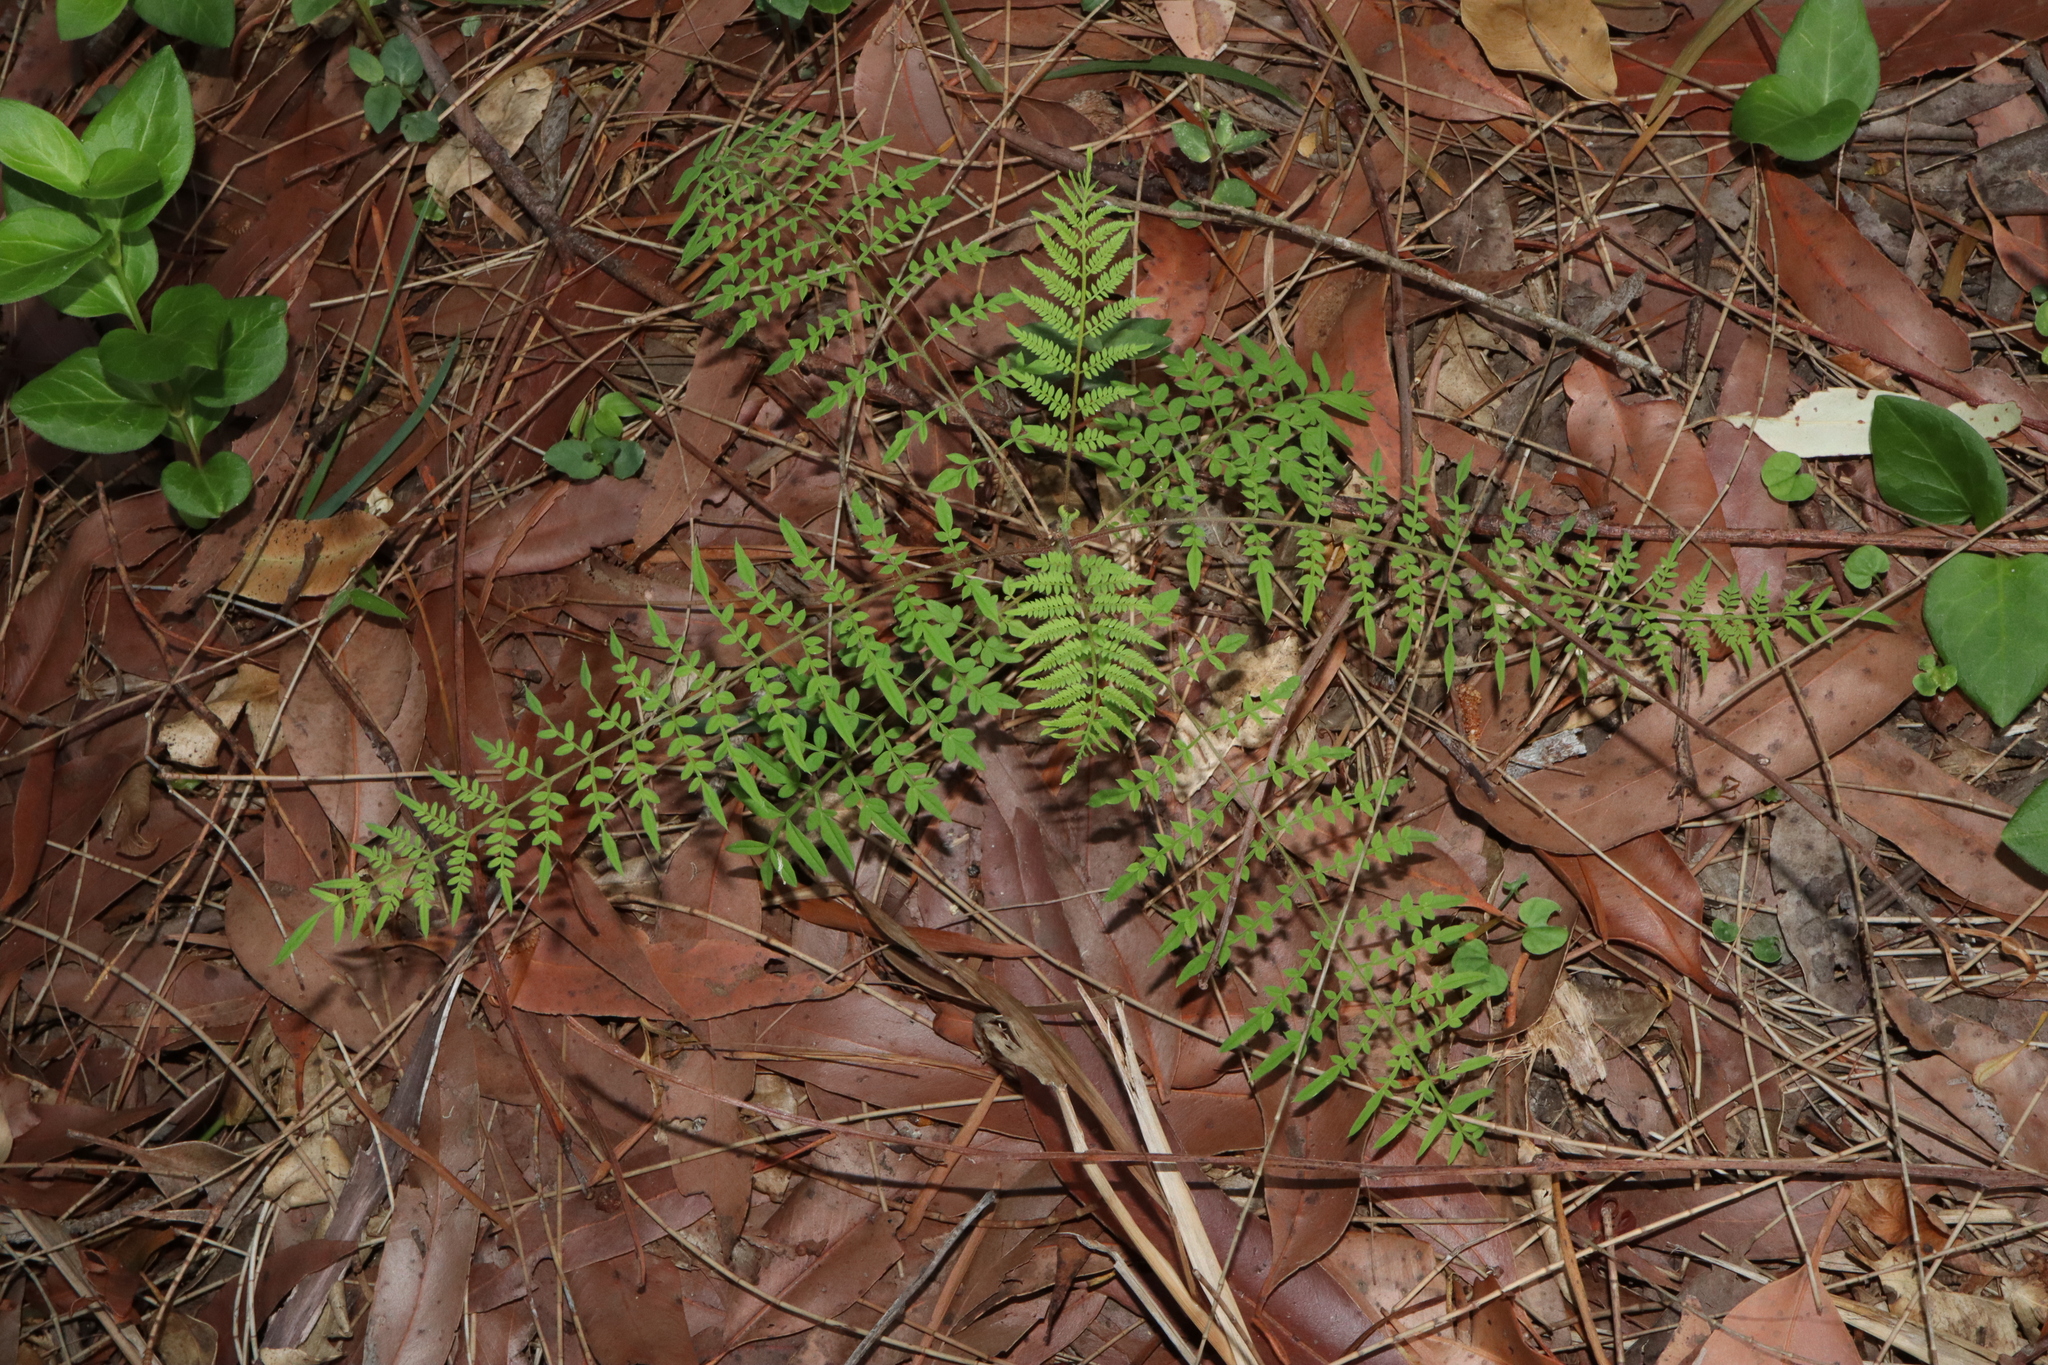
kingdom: Plantae
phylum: Tracheophyta
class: Magnoliopsida
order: Lamiales
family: Bignoniaceae
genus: Jacaranda
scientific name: Jacaranda mimosifolia
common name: Black poui
